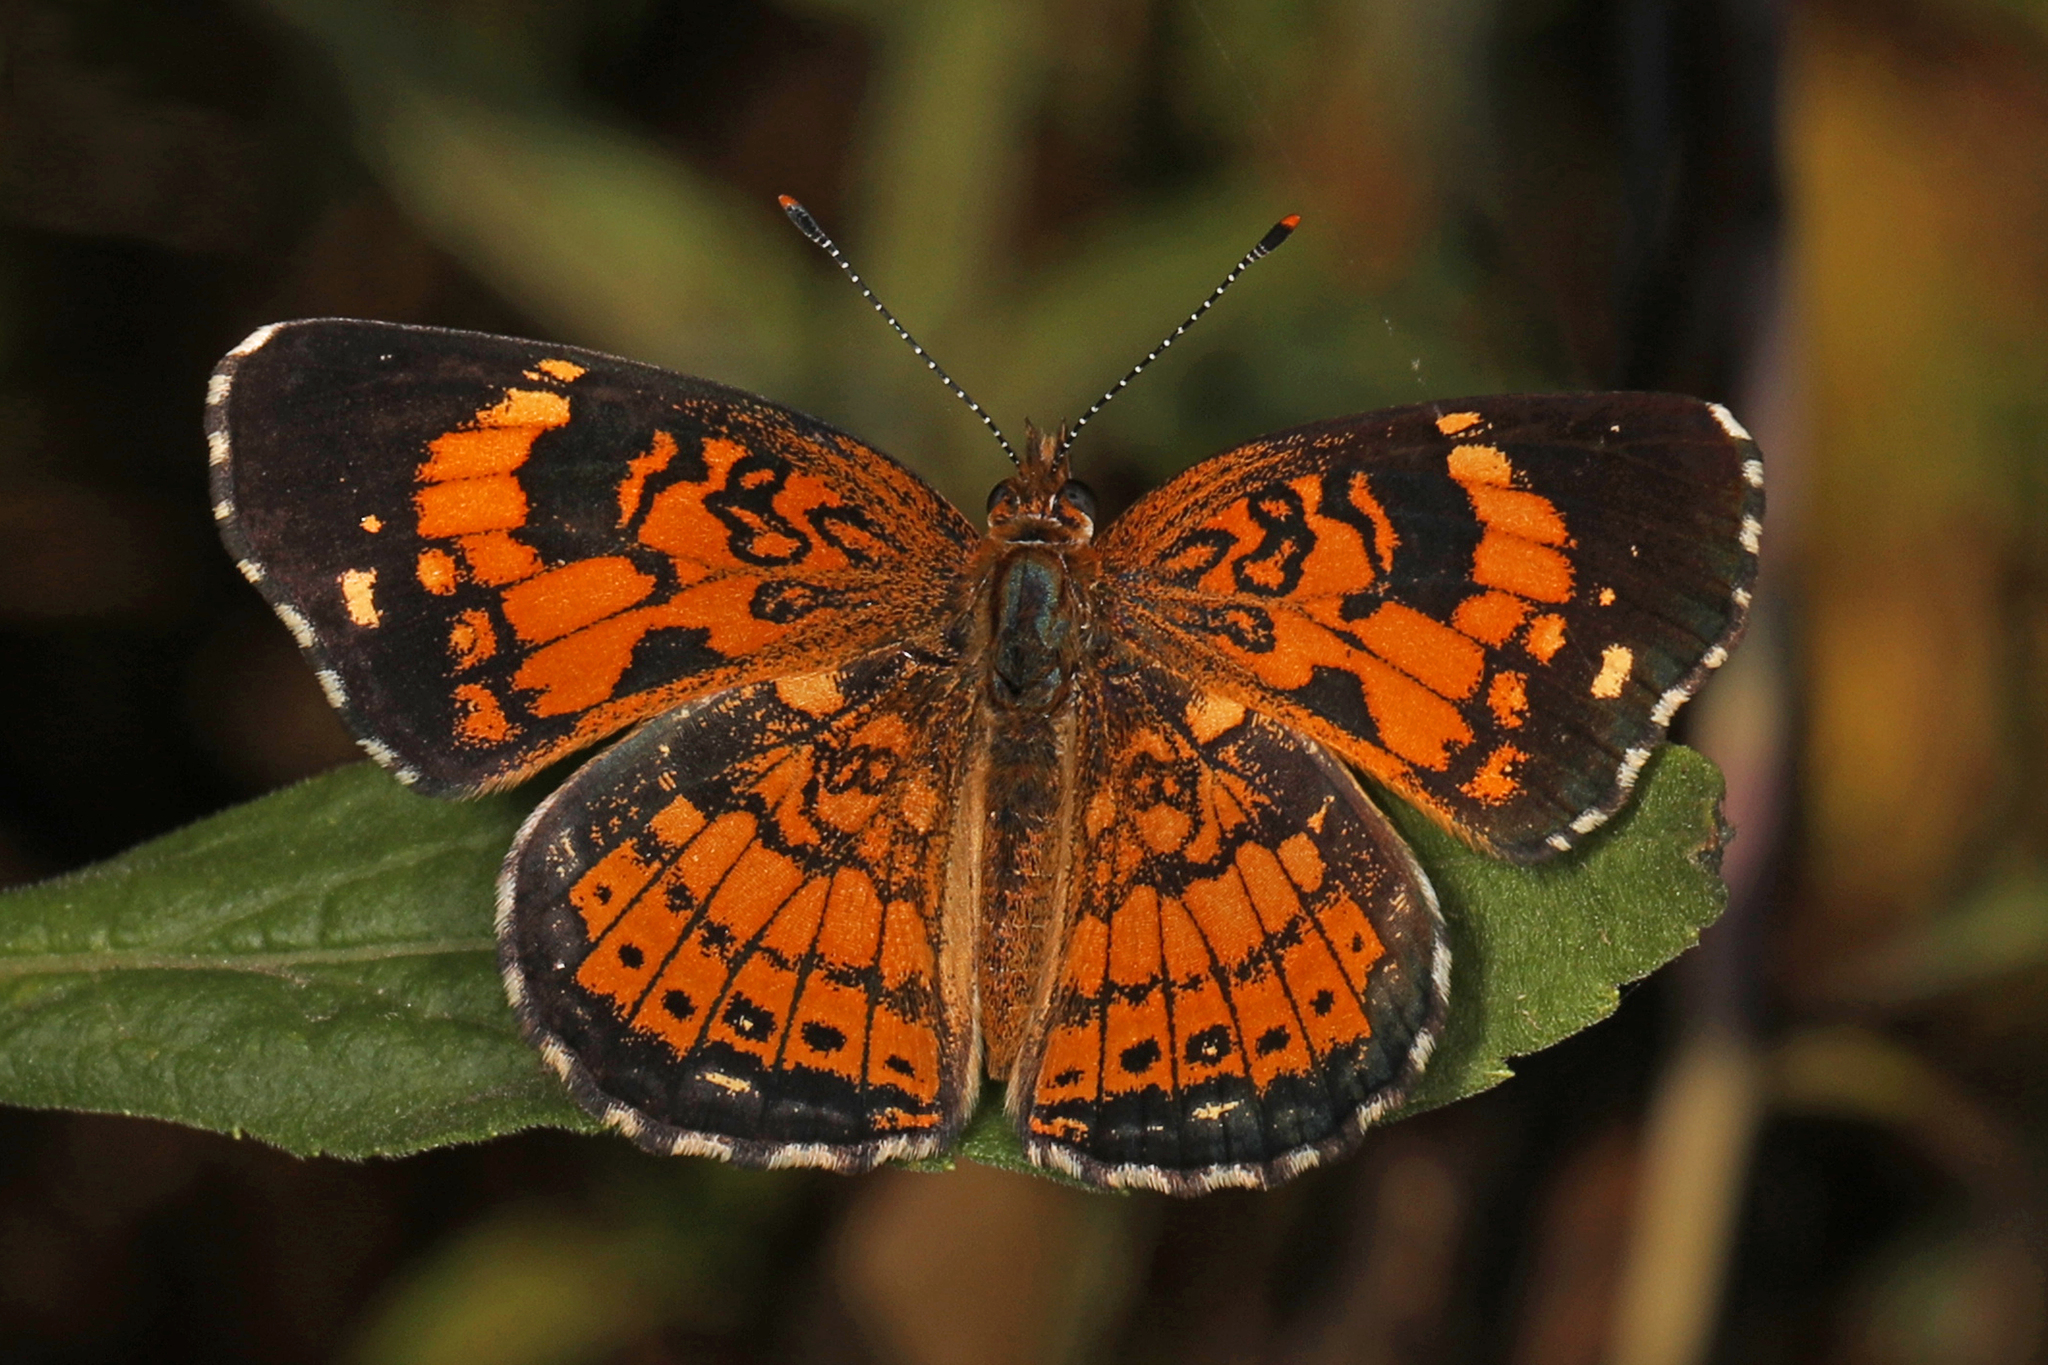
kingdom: Animalia
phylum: Arthropoda
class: Insecta
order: Lepidoptera
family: Nymphalidae
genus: Chlosyne
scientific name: Chlosyne nycteis
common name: Silvery checkerspot
